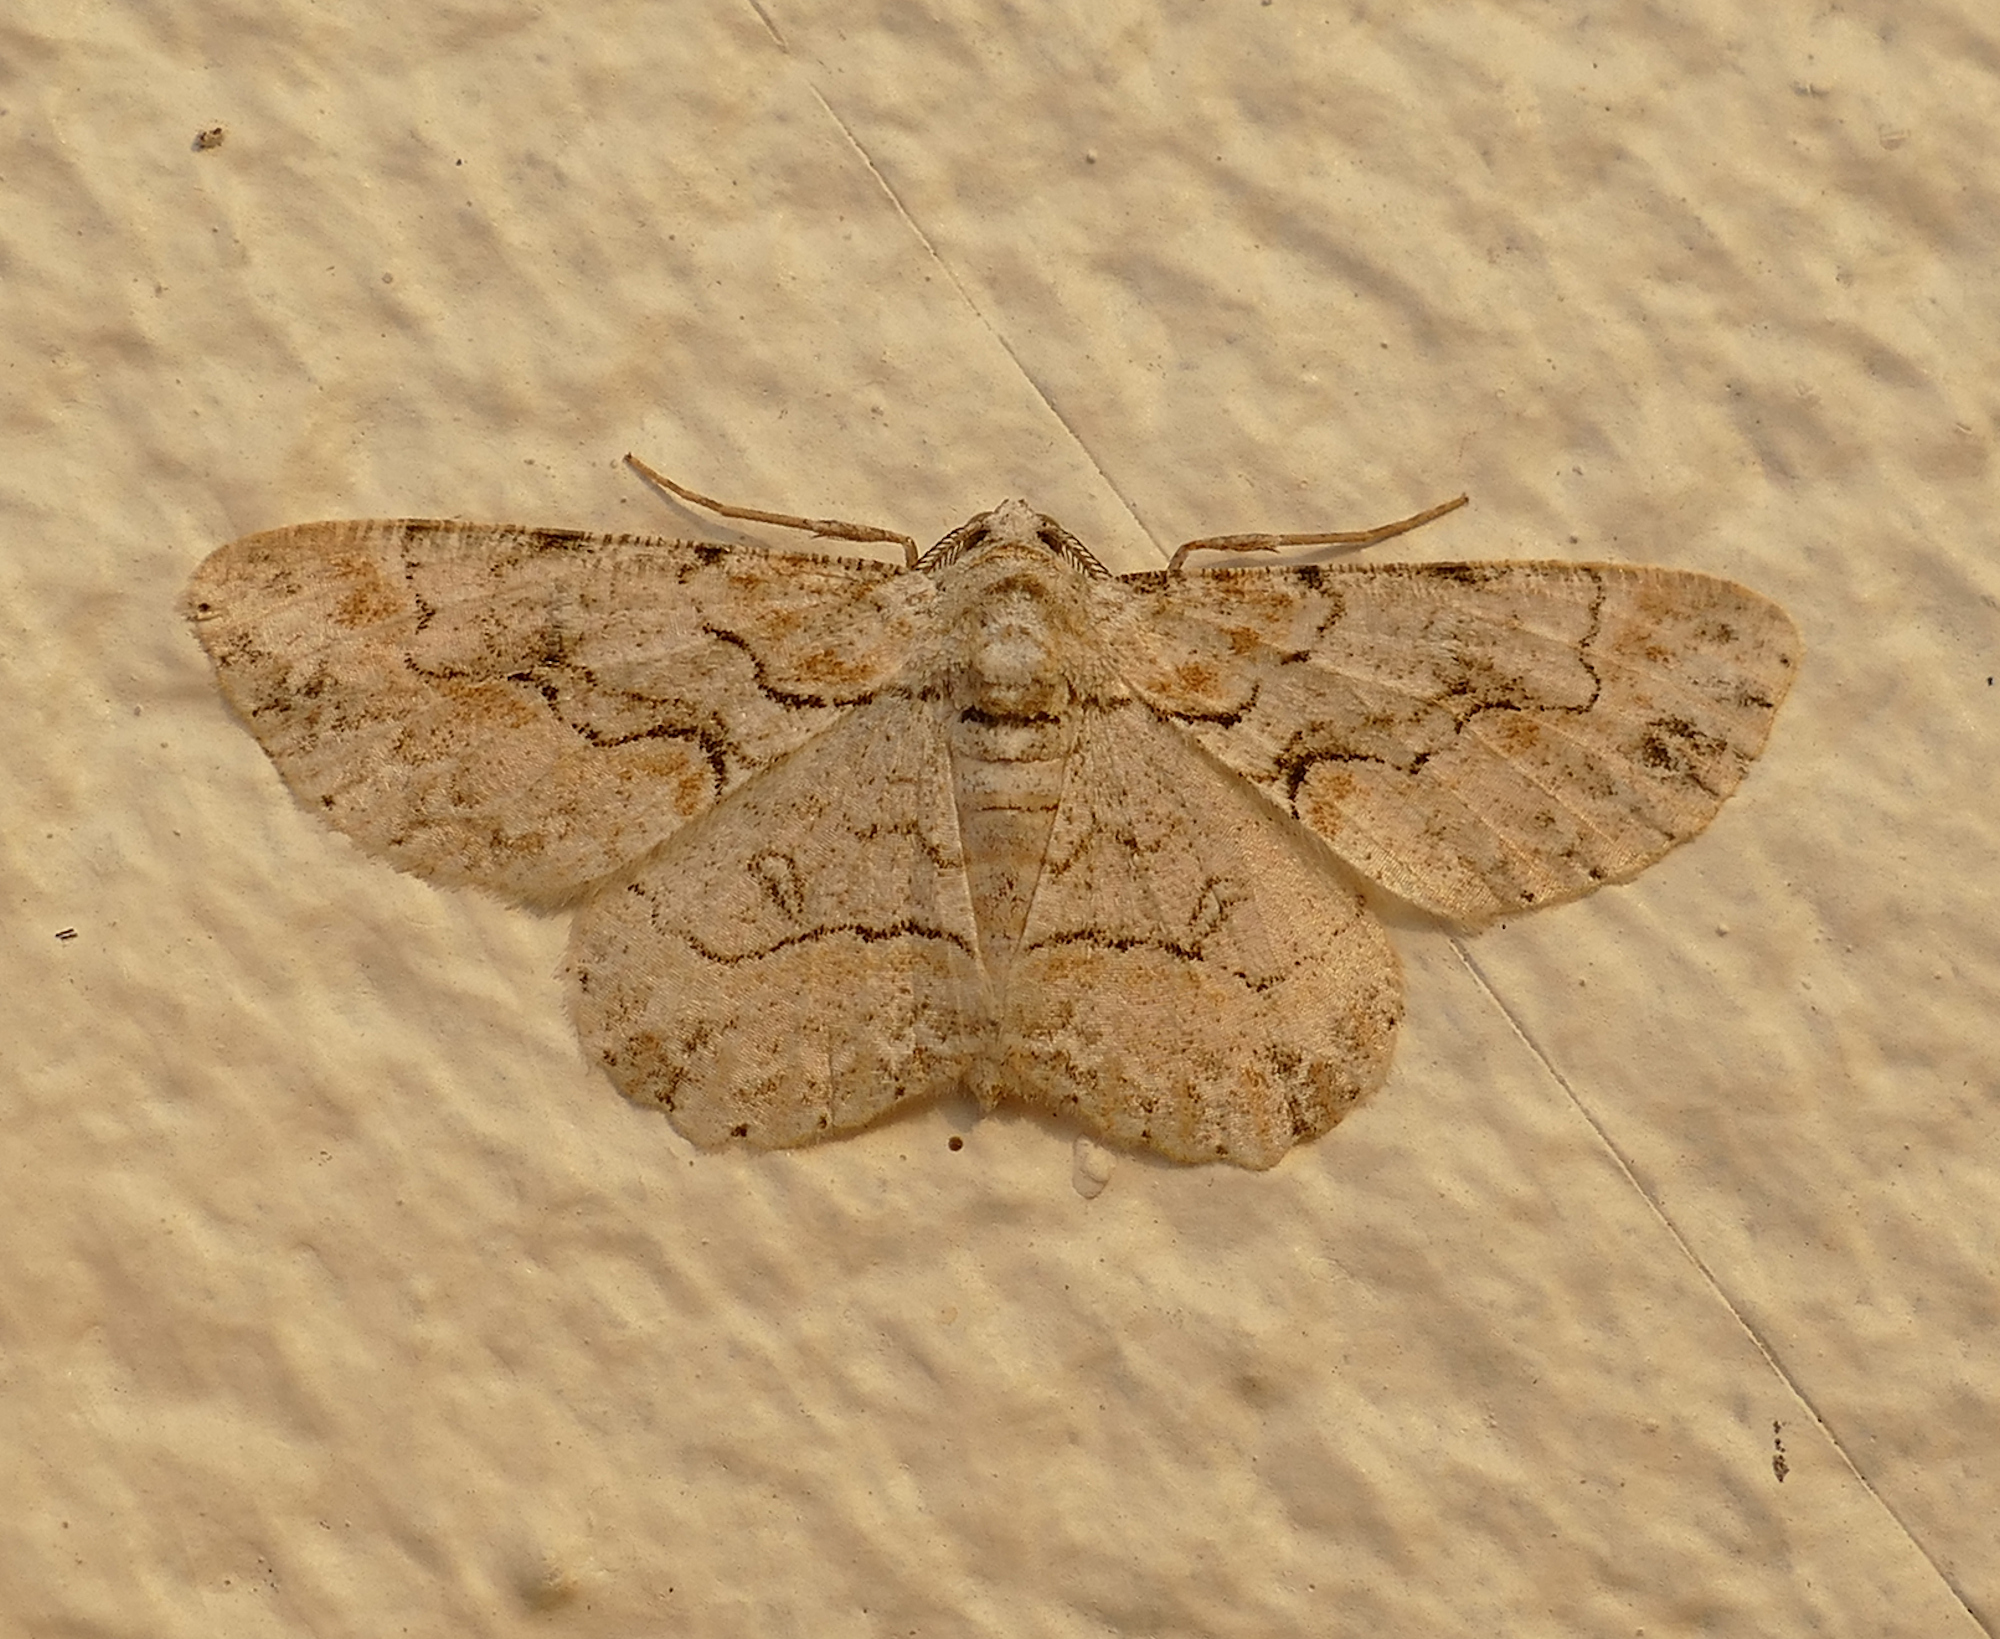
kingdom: Animalia
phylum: Arthropoda
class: Insecta
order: Lepidoptera
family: Geometridae
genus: Iridopsis
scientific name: Iridopsis defectaria
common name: Brown-shaded gray
